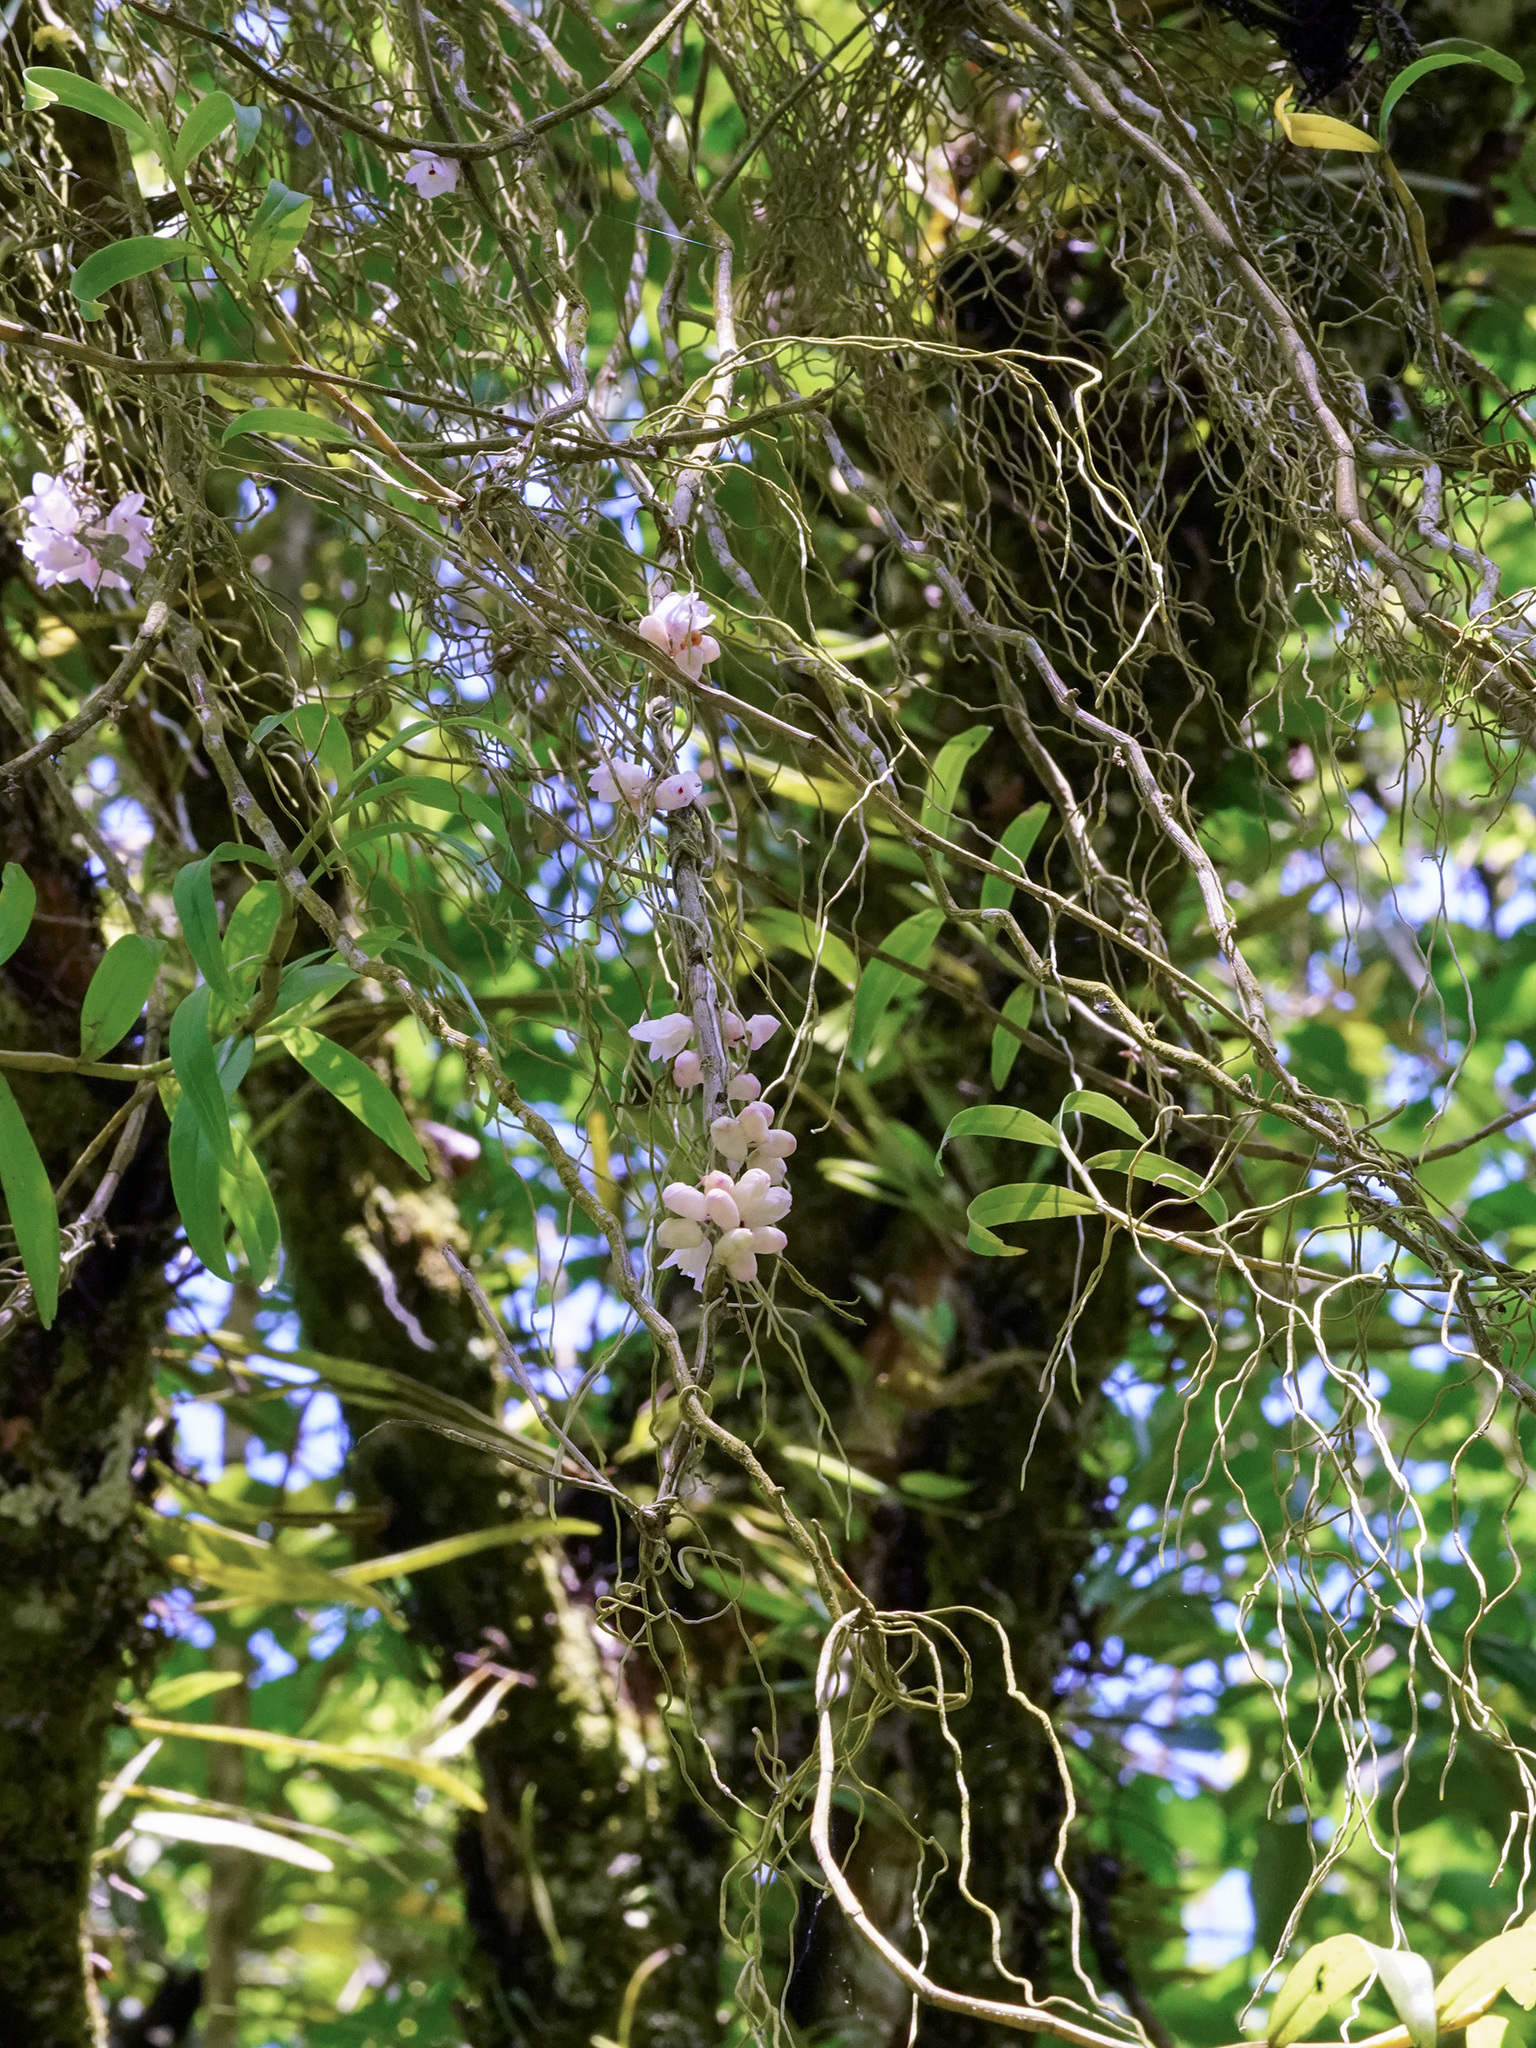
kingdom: Plantae
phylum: Tracheophyta
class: Liliopsida
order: Asparagales
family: Orchidaceae
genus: Dendrobium
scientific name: Dendrobium linguella
